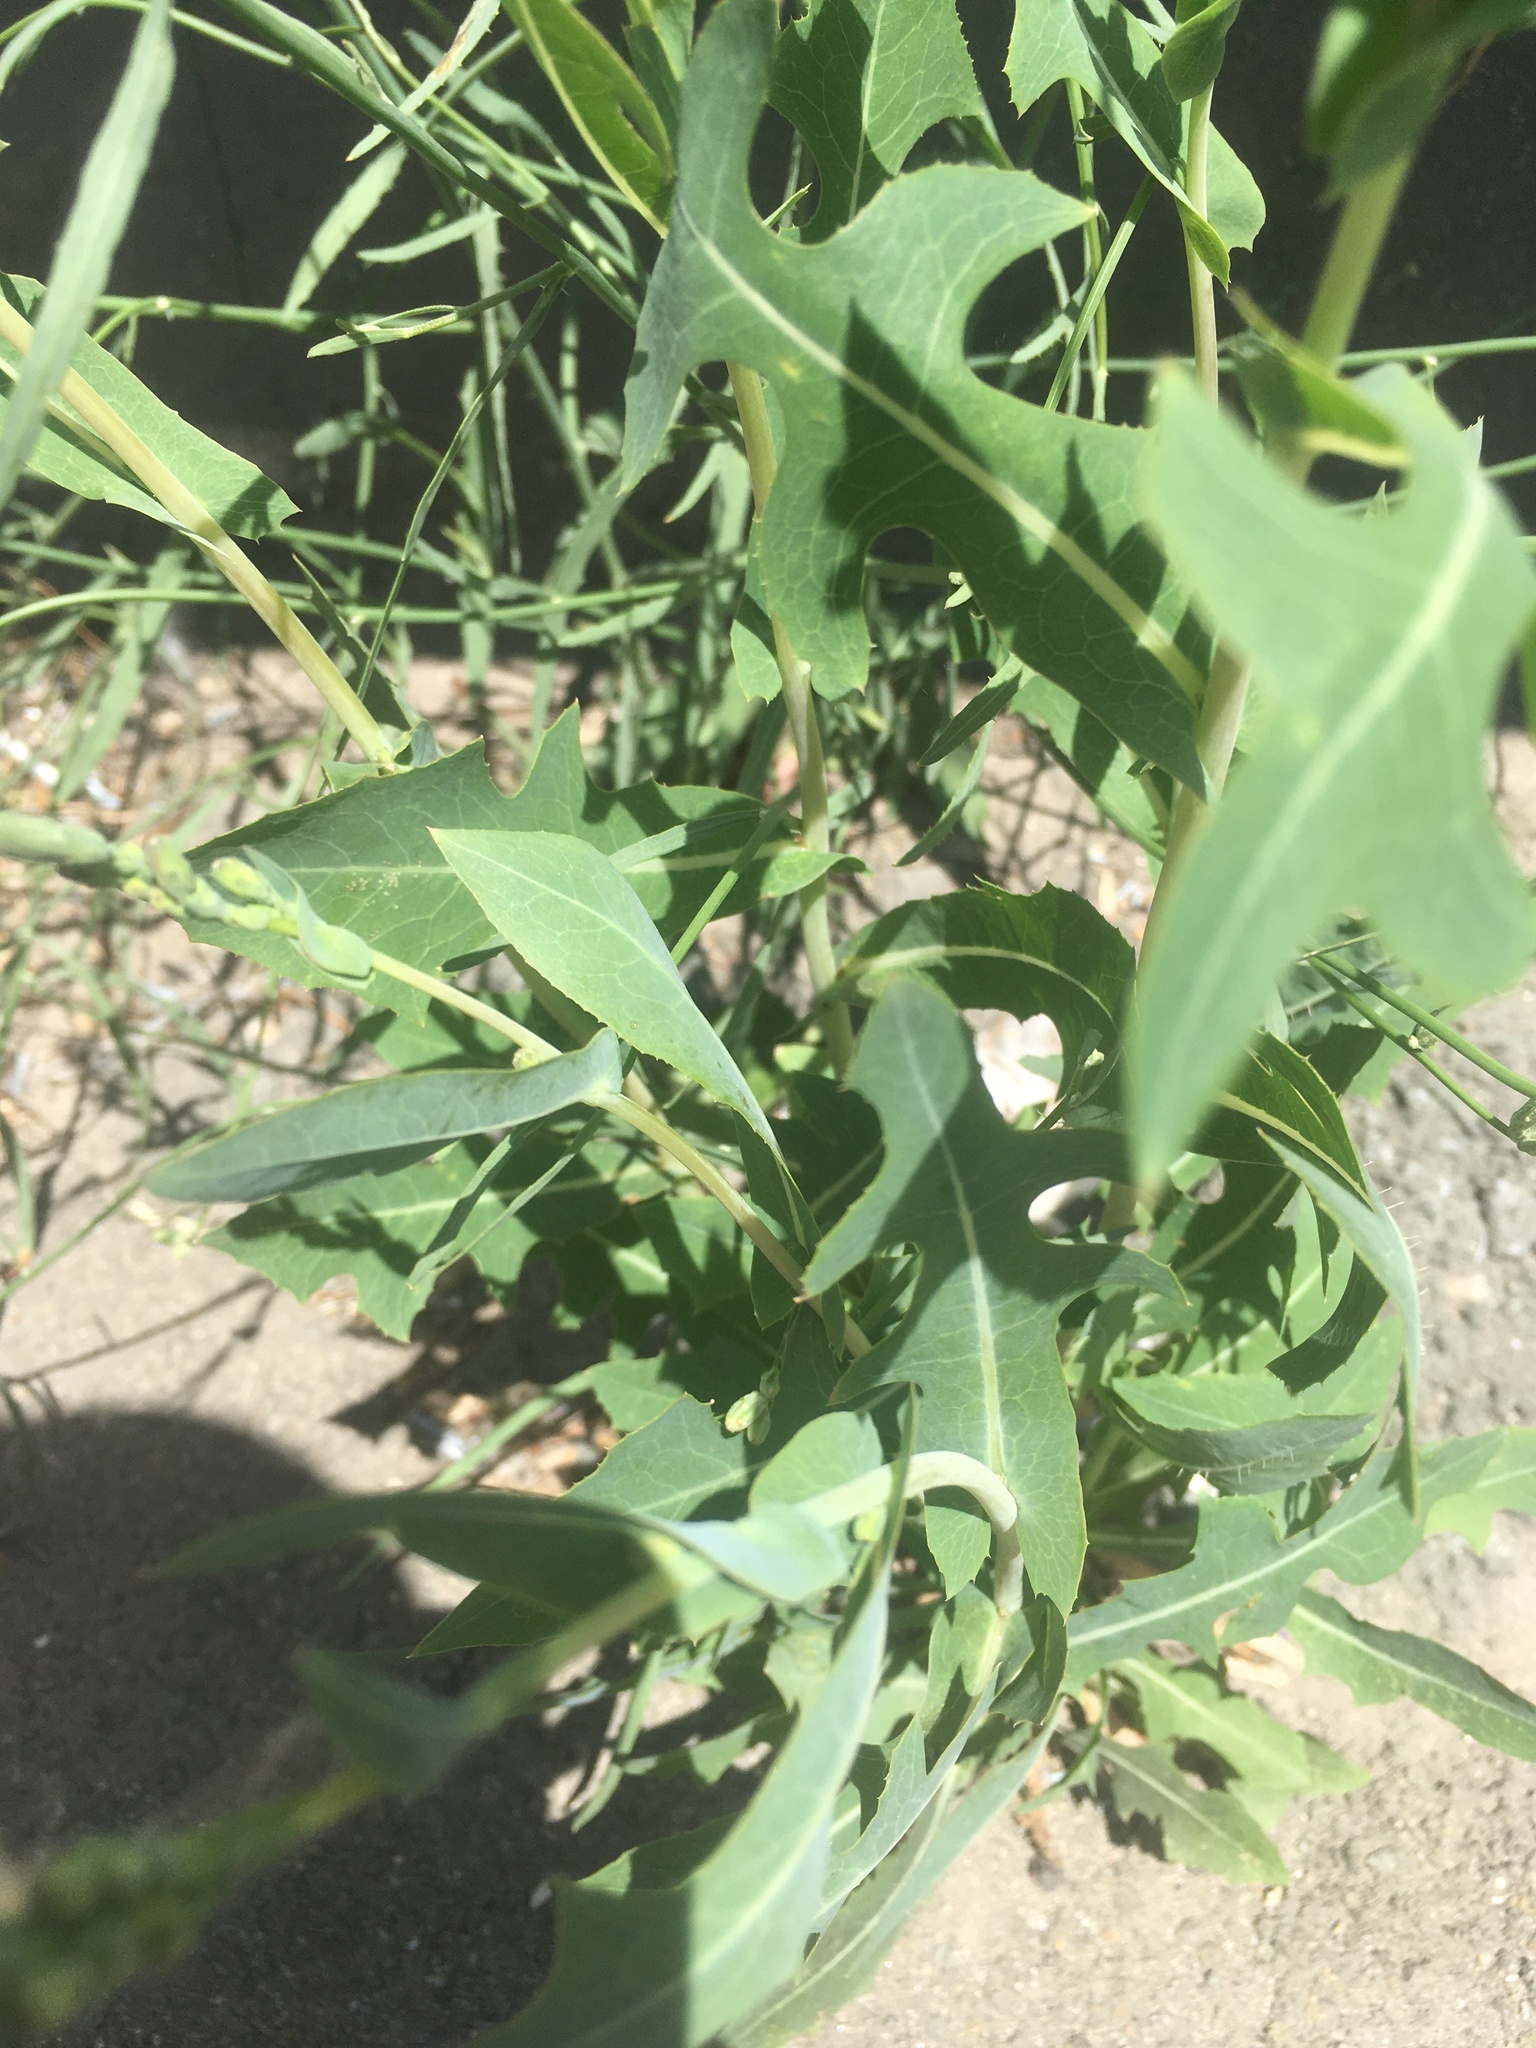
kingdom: Plantae
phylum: Tracheophyta
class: Magnoliopsida
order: Asterales
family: Asteraceae
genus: Lactuca
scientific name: Lactuca serriola
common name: Prickly lettuce
